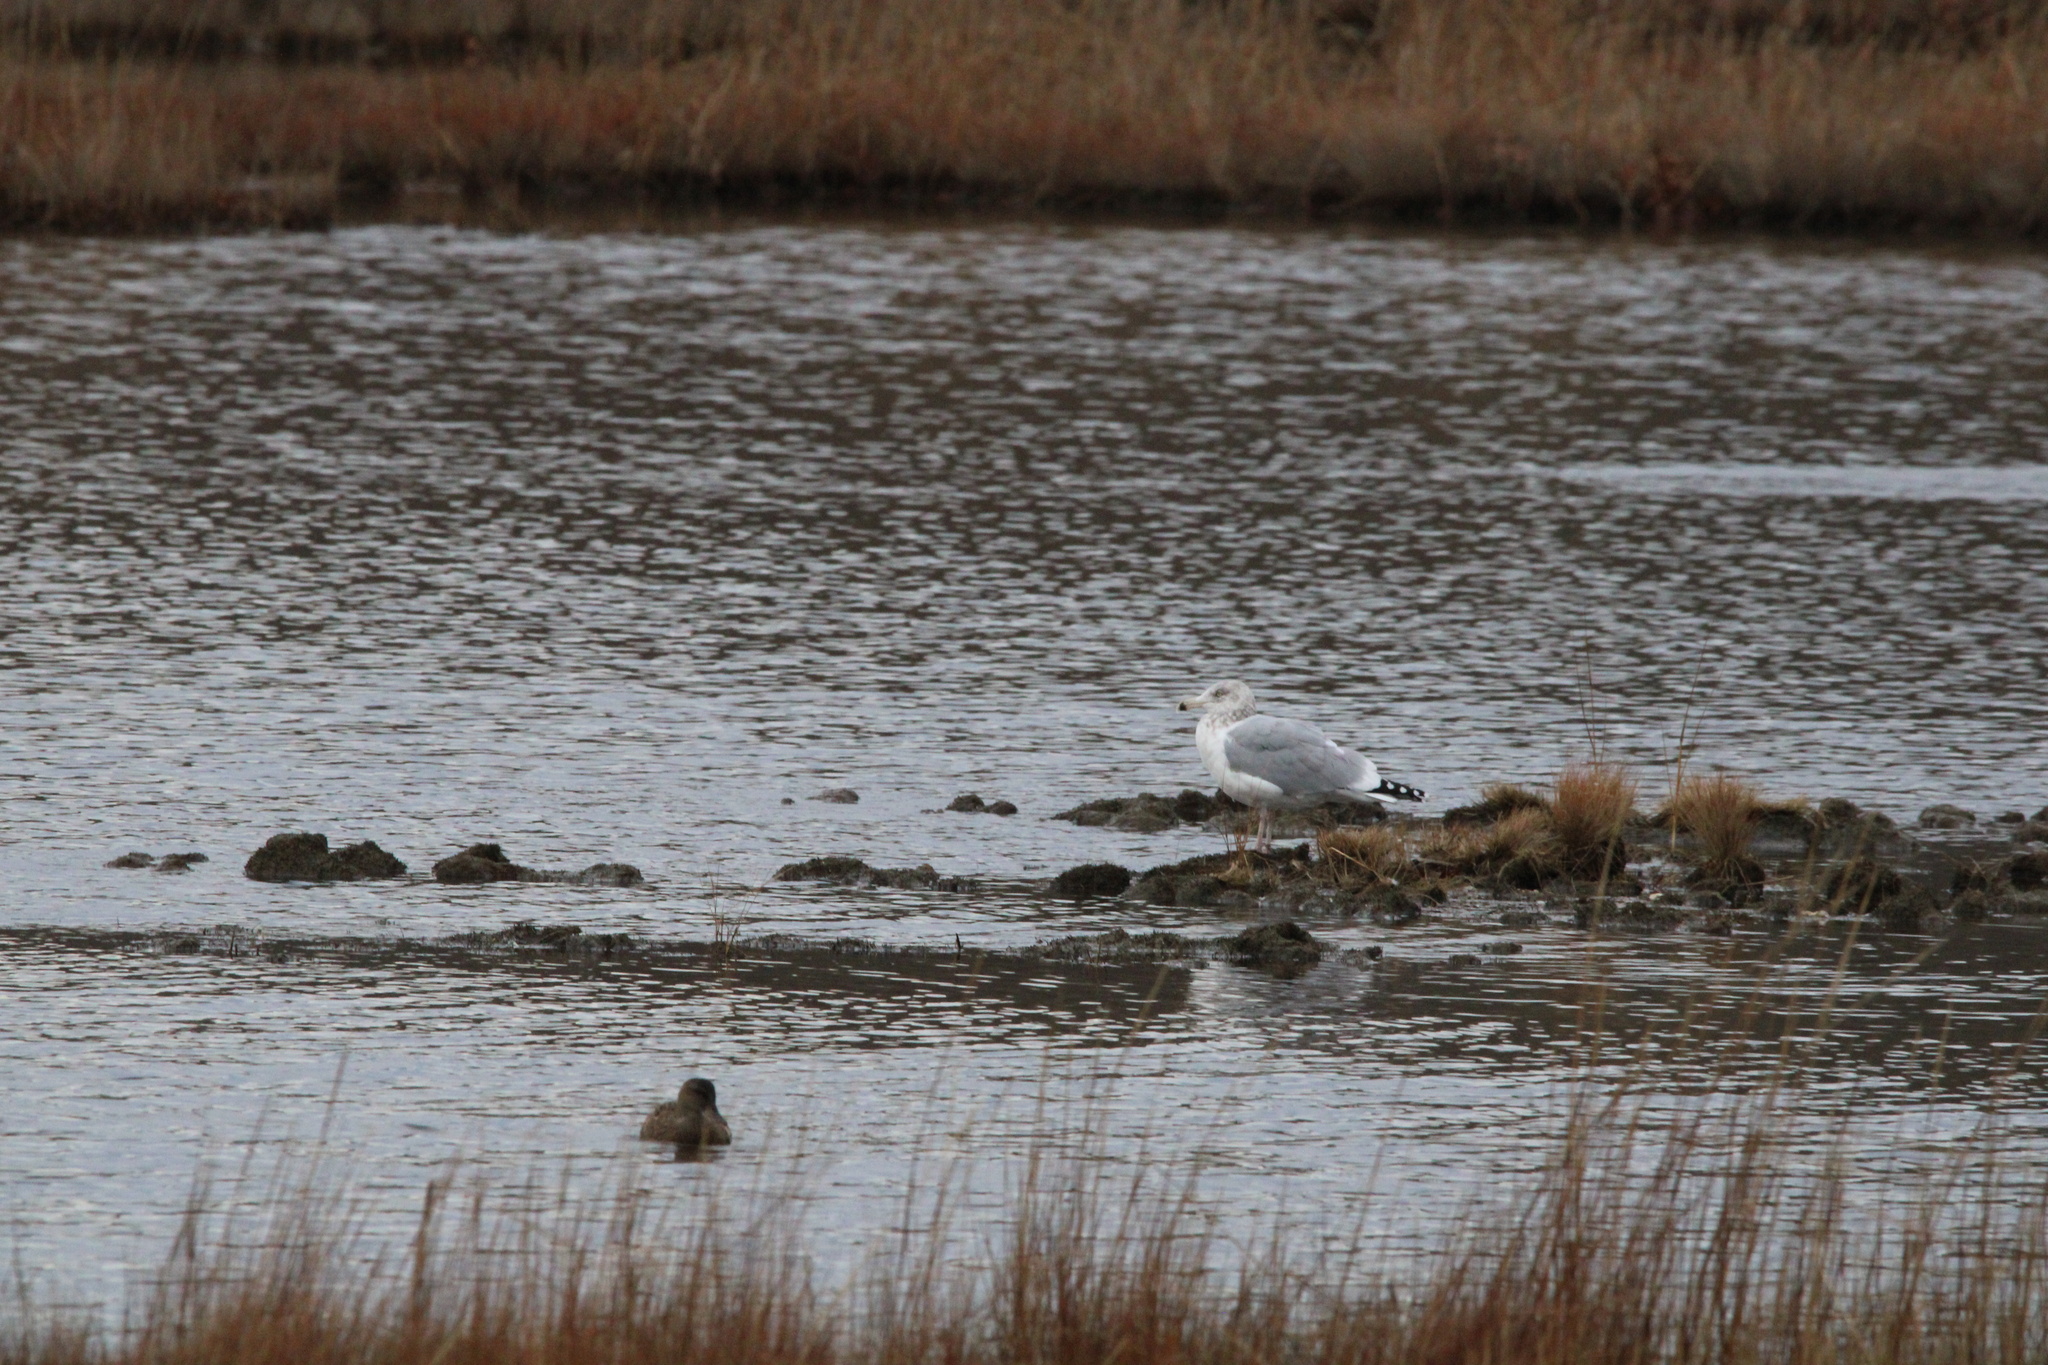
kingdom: Animalia
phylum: Chordata
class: Aves
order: Charadriiformes
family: Laridae
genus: Larus
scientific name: Larus argentatus
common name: Herring gull
